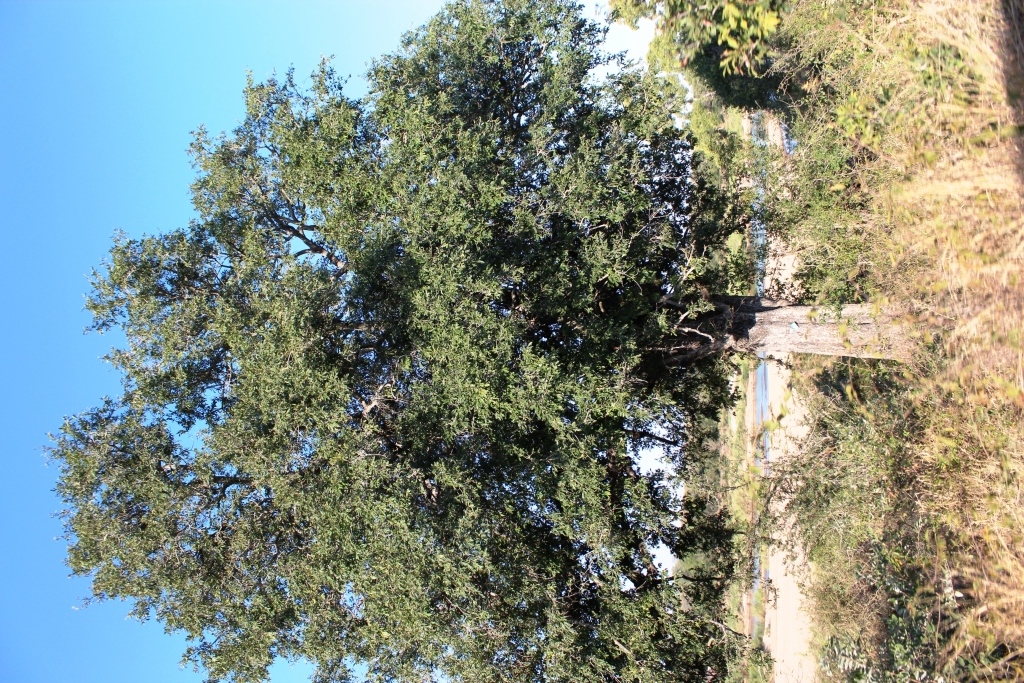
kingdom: Plantae
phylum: Tracheophyta
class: Magnoliopsida
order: Ericales
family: Ebenaceae
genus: Diospyros
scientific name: Diospyros mespiliformis
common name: Ebony diospyros
